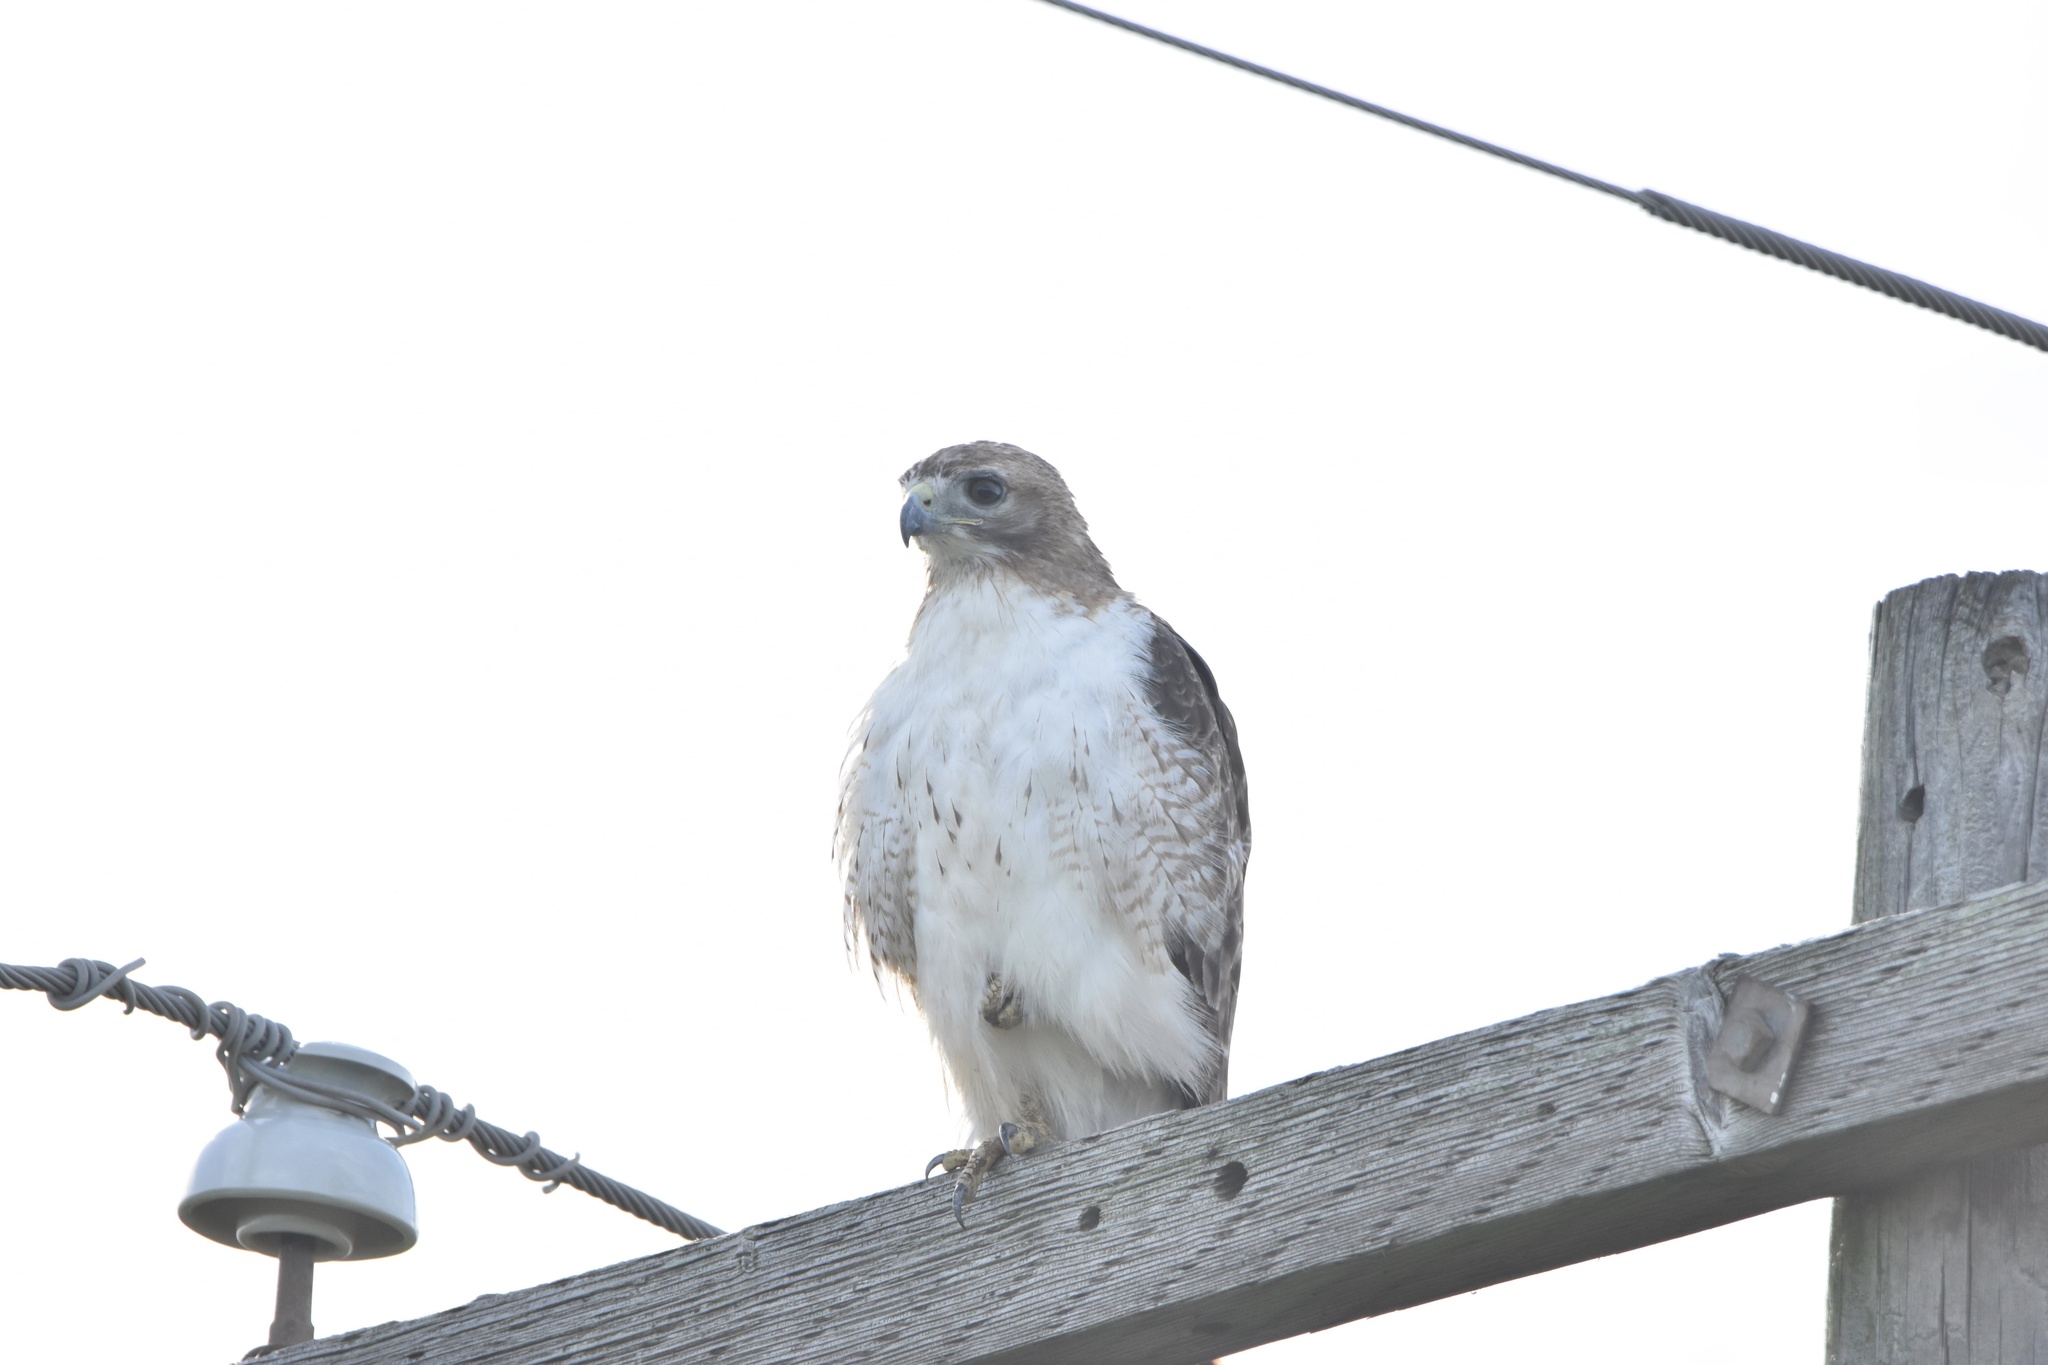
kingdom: Animalia
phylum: Chordata
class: Aves
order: Accipitriformes
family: Accipitridae
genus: Buteo
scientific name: Buteo jamaicensis
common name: Red-tailed hawk
